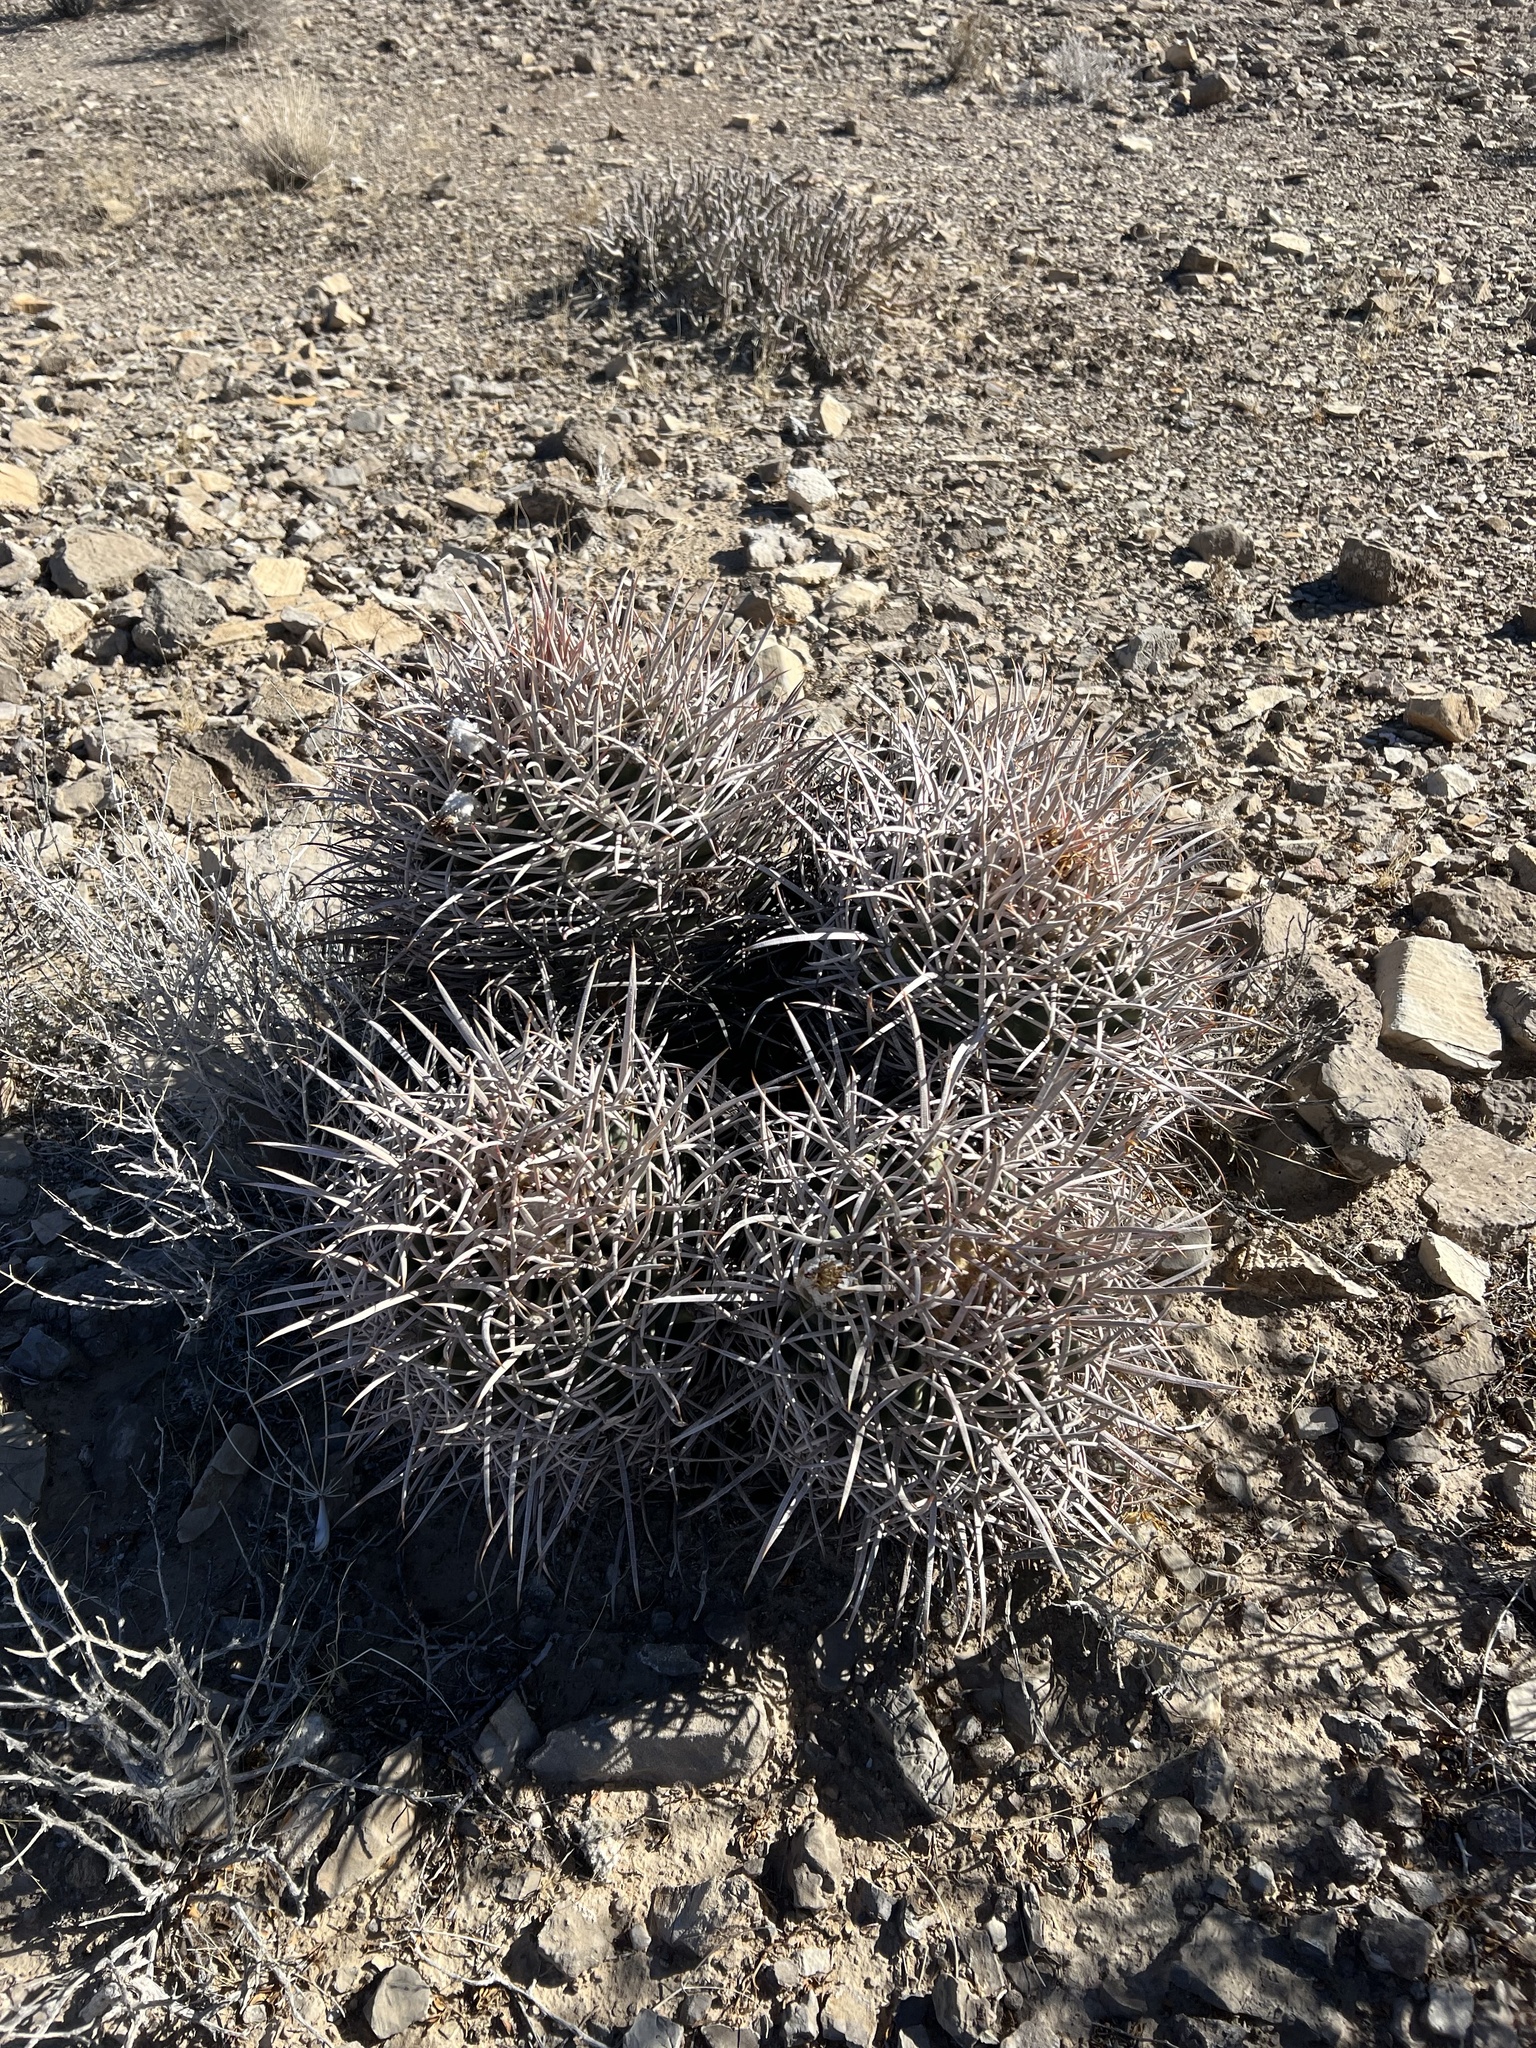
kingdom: Plantae
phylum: Tracheophyta
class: Magnoliopsida
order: Caryophyllales
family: Cactaceae
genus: Echinocactus
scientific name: Echinocactus polycephalus
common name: Cottontop cactus
